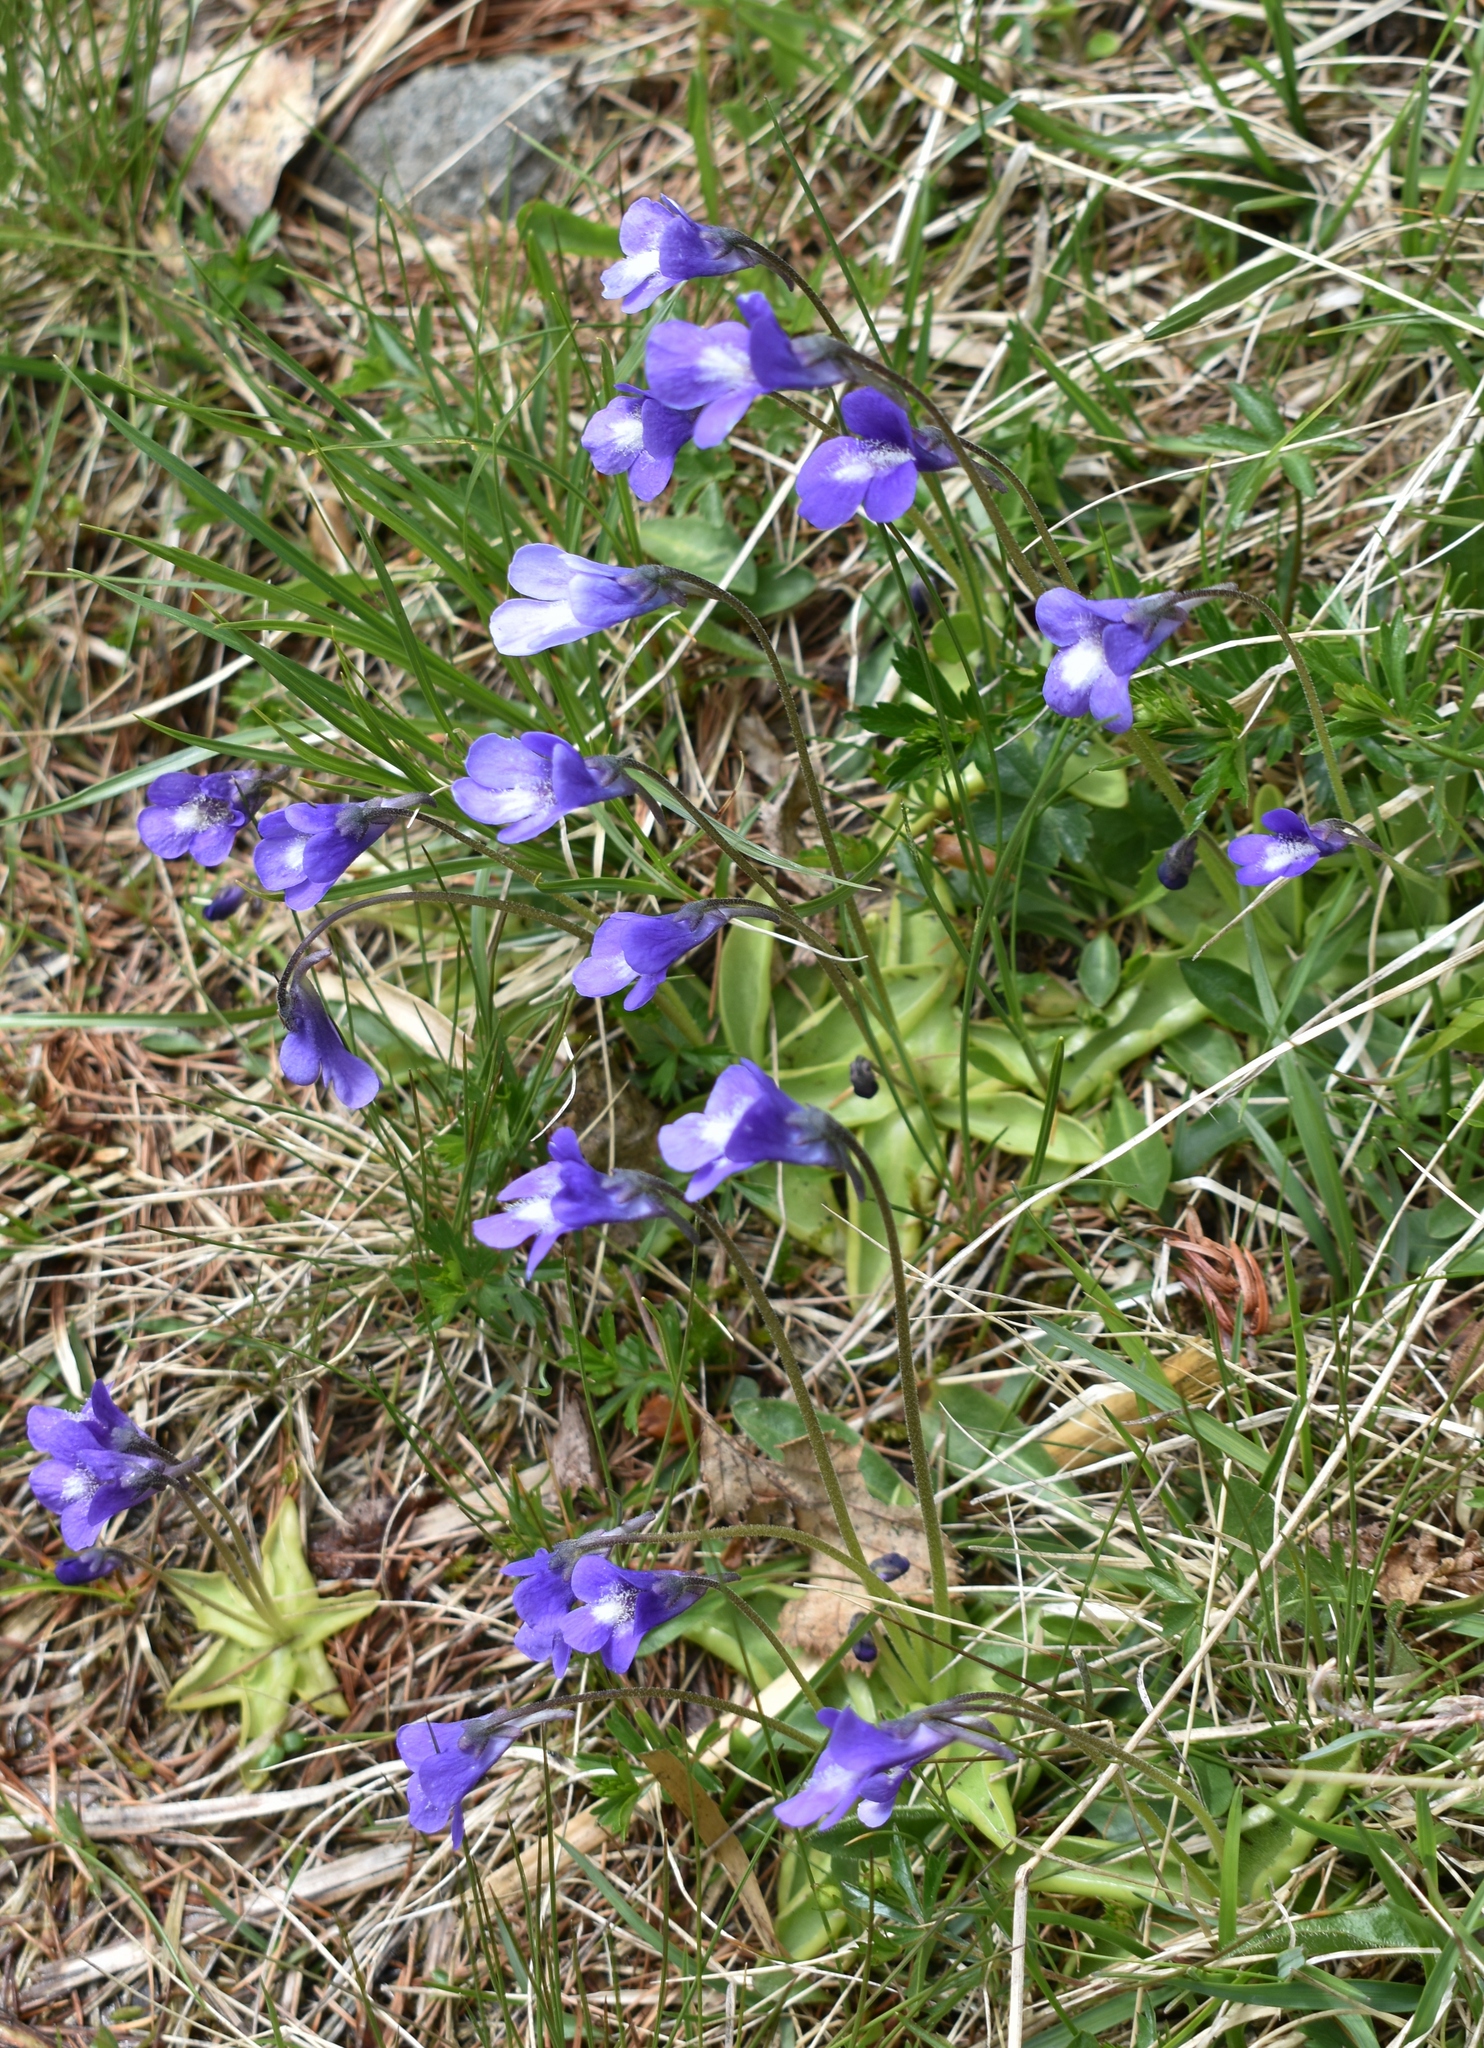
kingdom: Plantae
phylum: Tracheophyta
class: Magnoliopsida
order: Lamiales
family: Lentibulariaceae
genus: Pinguicula
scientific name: Pinguicula leptoceras
